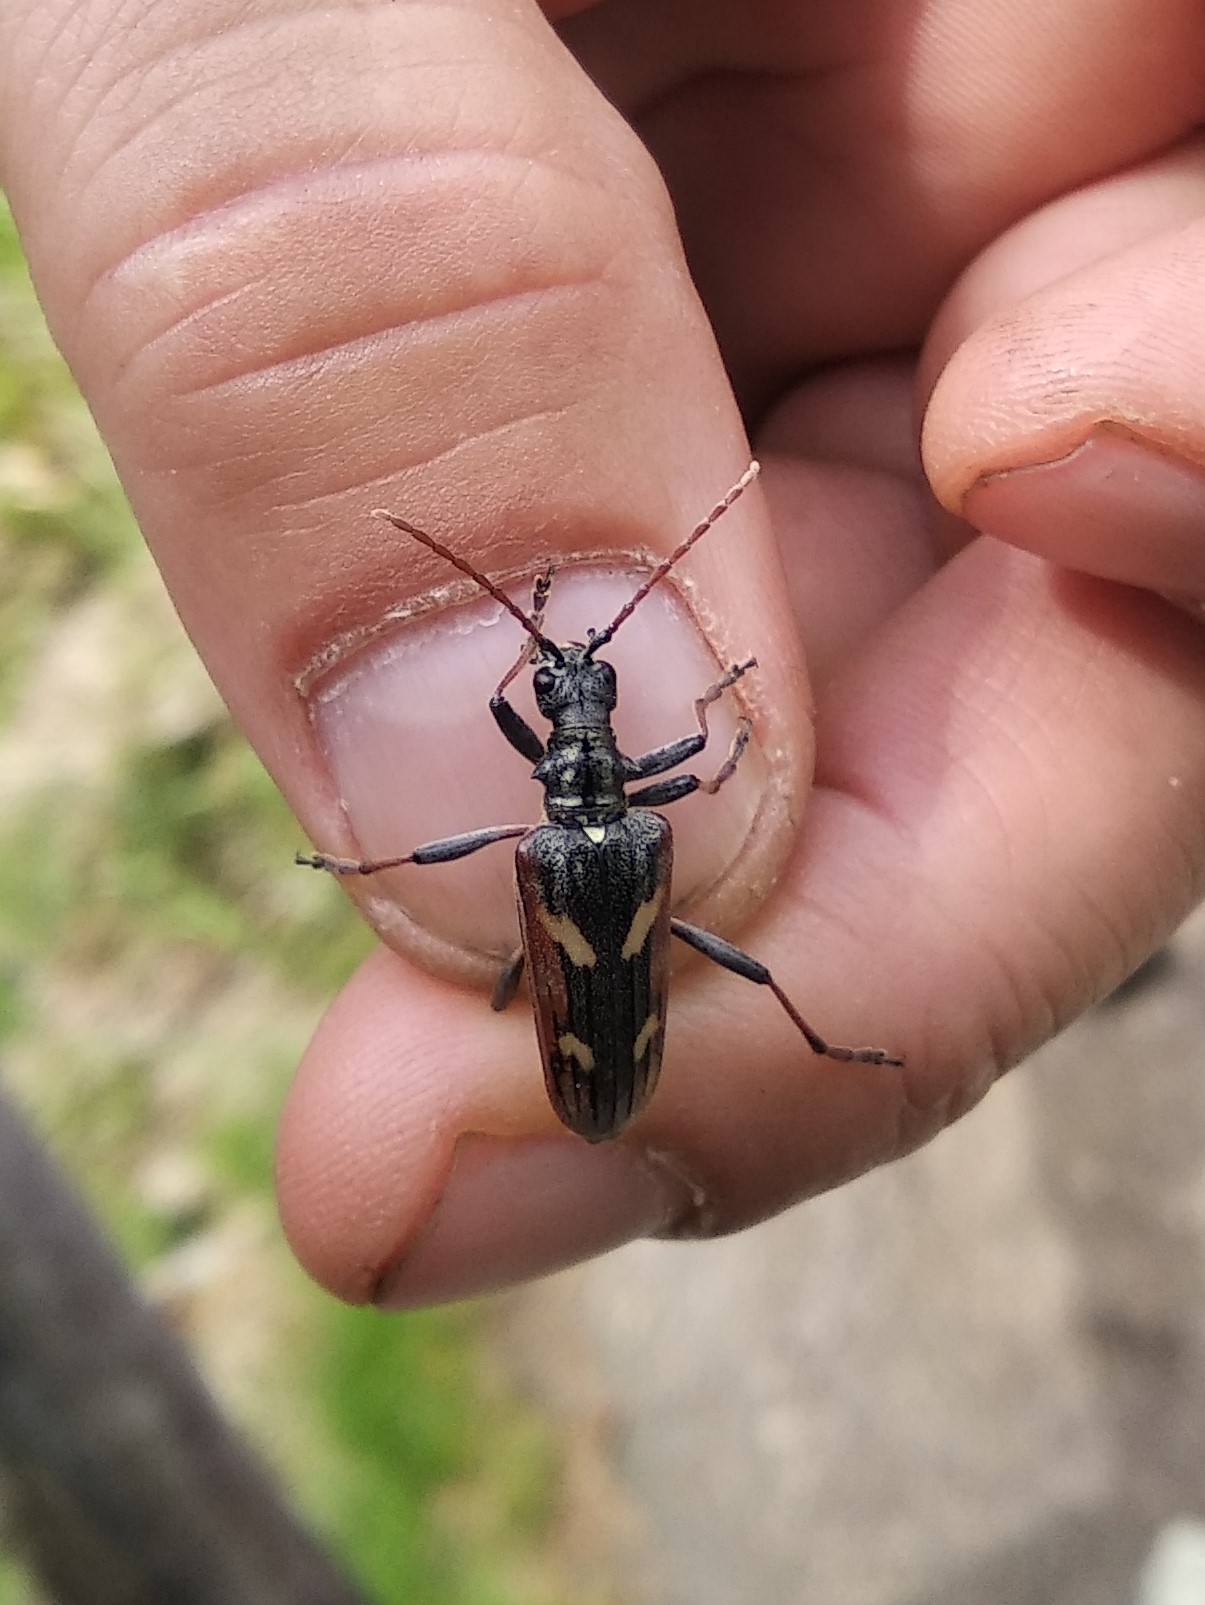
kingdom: Animalia
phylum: Arthropoda
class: Insecta
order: Coleoptera
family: Cerambycidae
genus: Rhagium
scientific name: Rhagium bifasciatum
